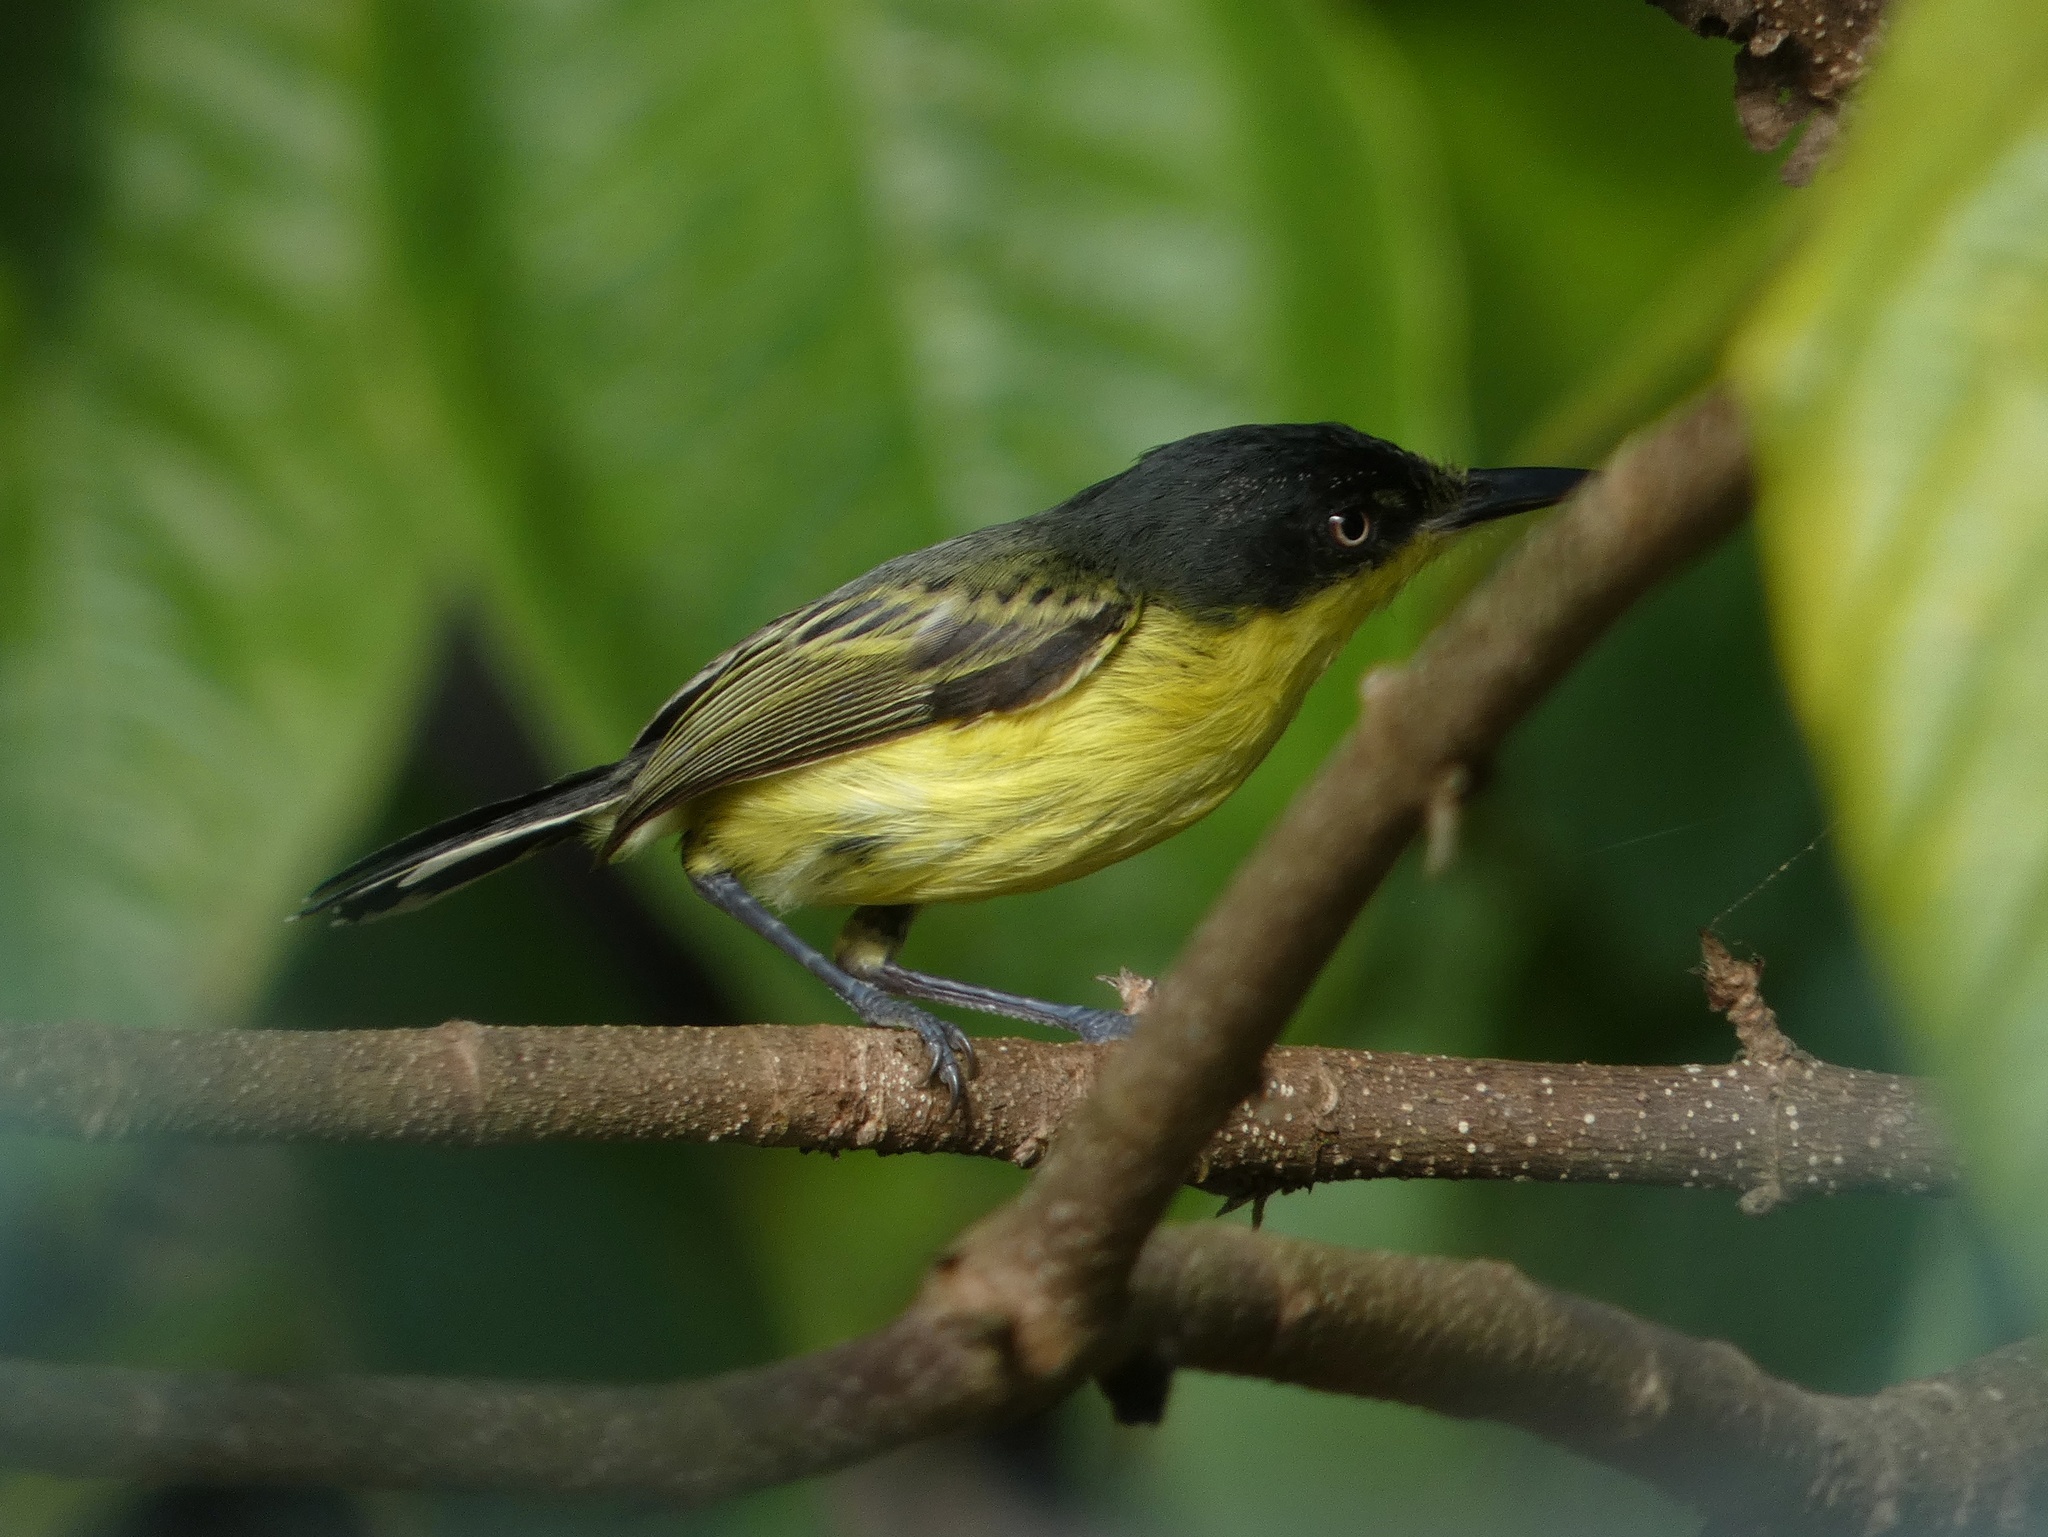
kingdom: Animalia
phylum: Chordata
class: Aves
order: Passeriformes
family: Tyrannidae
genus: Todirostrum
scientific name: Todirostrum cinereum
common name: Common tody-flycatcher
